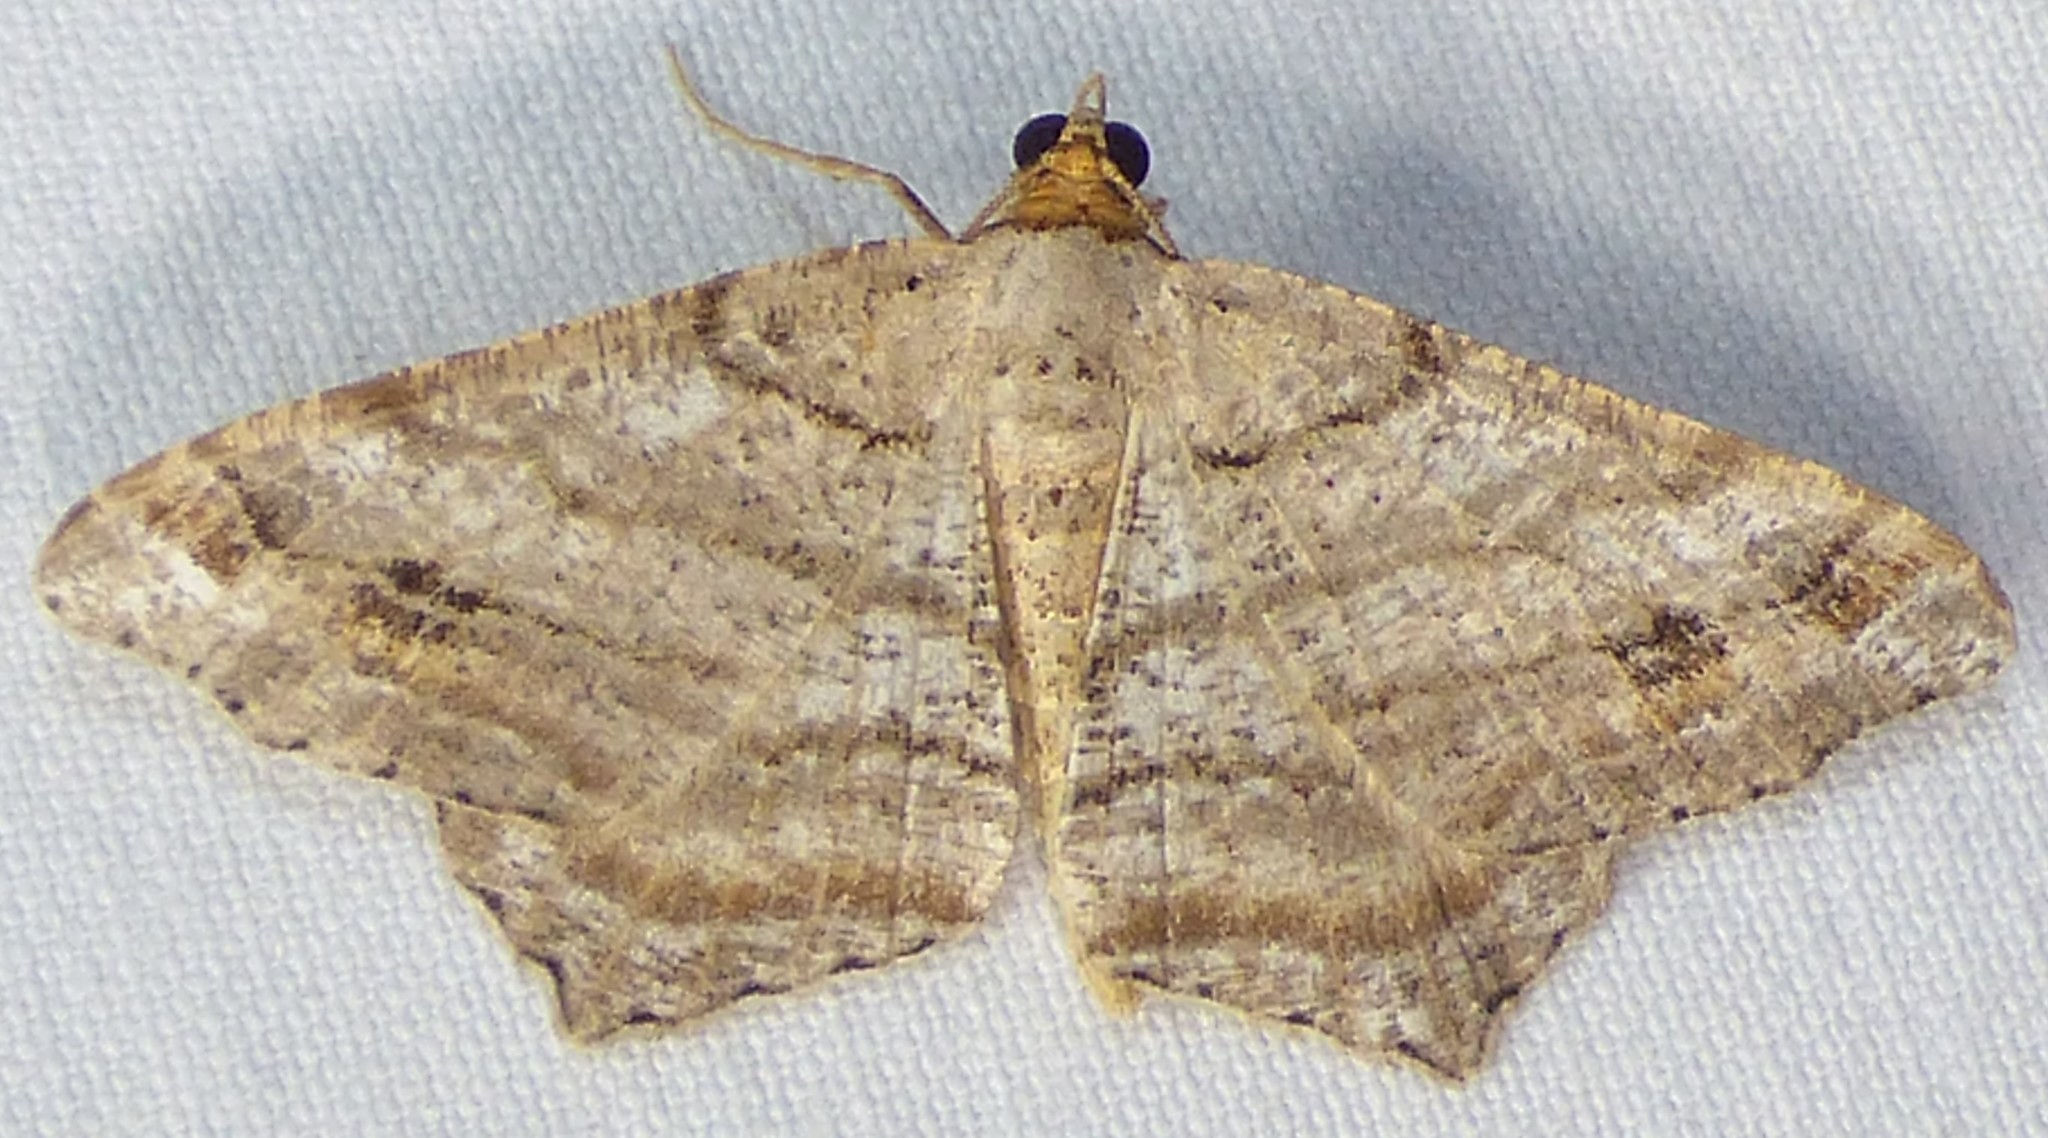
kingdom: Animalia
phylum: Arthropoda
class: Insecta
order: Lepidoptera
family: Geometridae
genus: Macaria
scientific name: Macaria multilineata
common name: Many-lined angle
